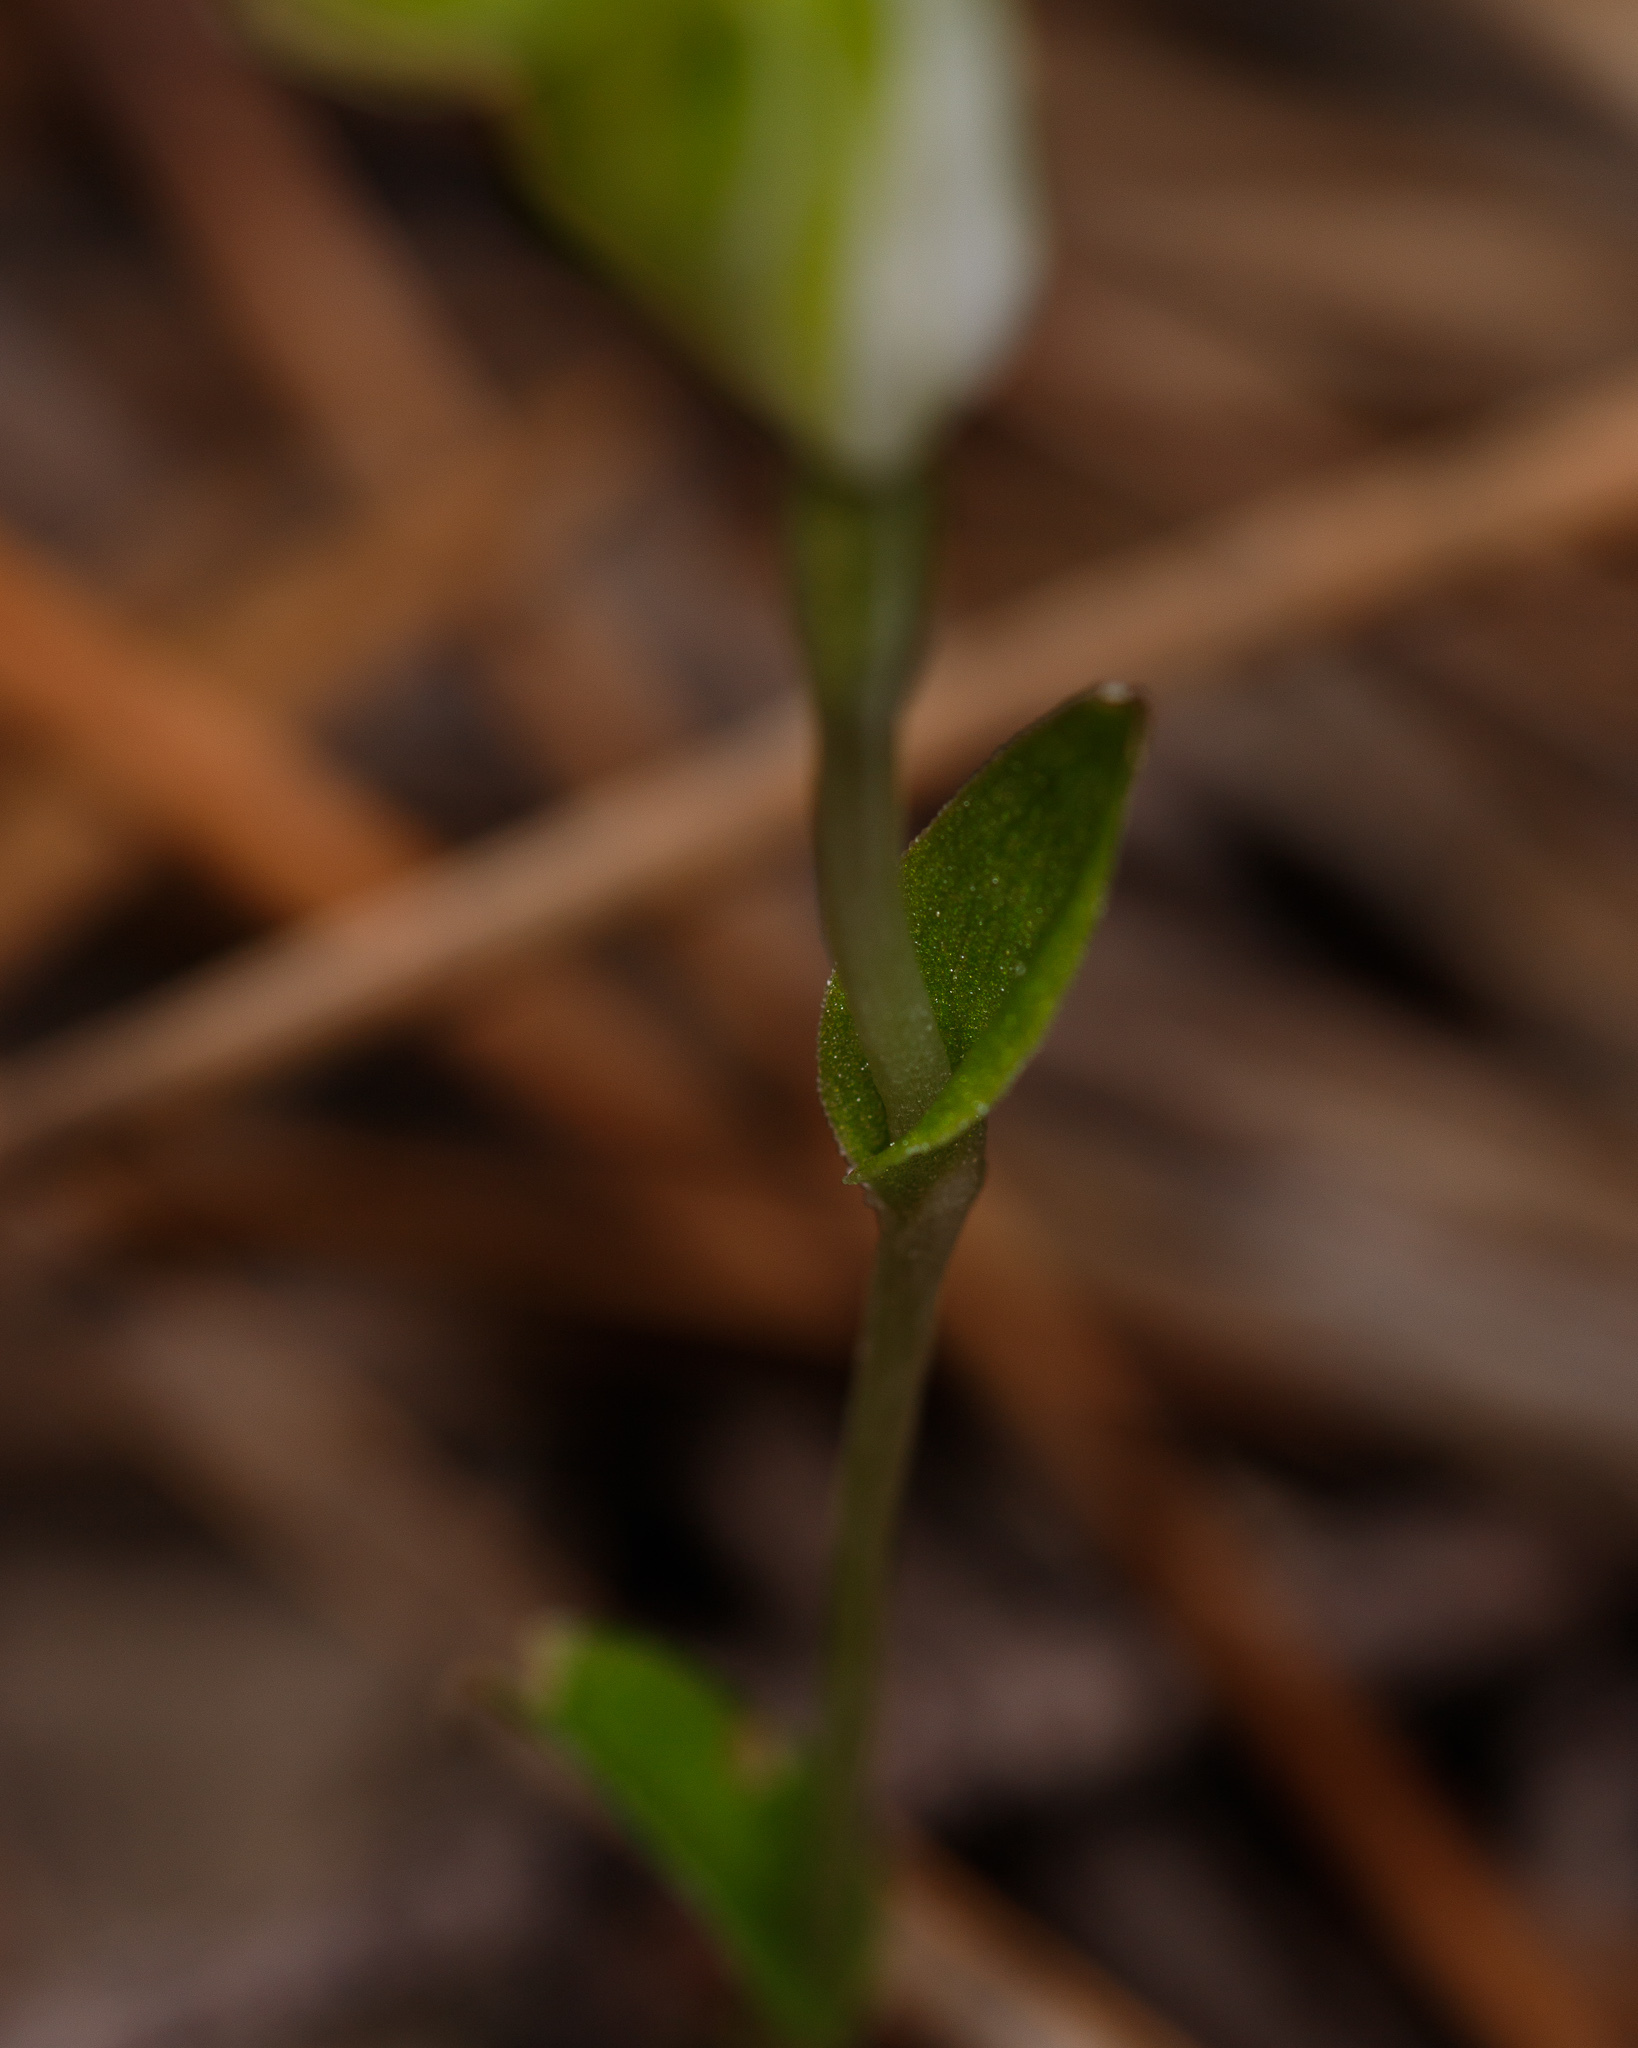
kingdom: Plantae
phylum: Tracheophyta
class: Liliopsida
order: Asparagales
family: Orchidaceae
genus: Pterostylis
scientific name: Pterostylis ectypha
